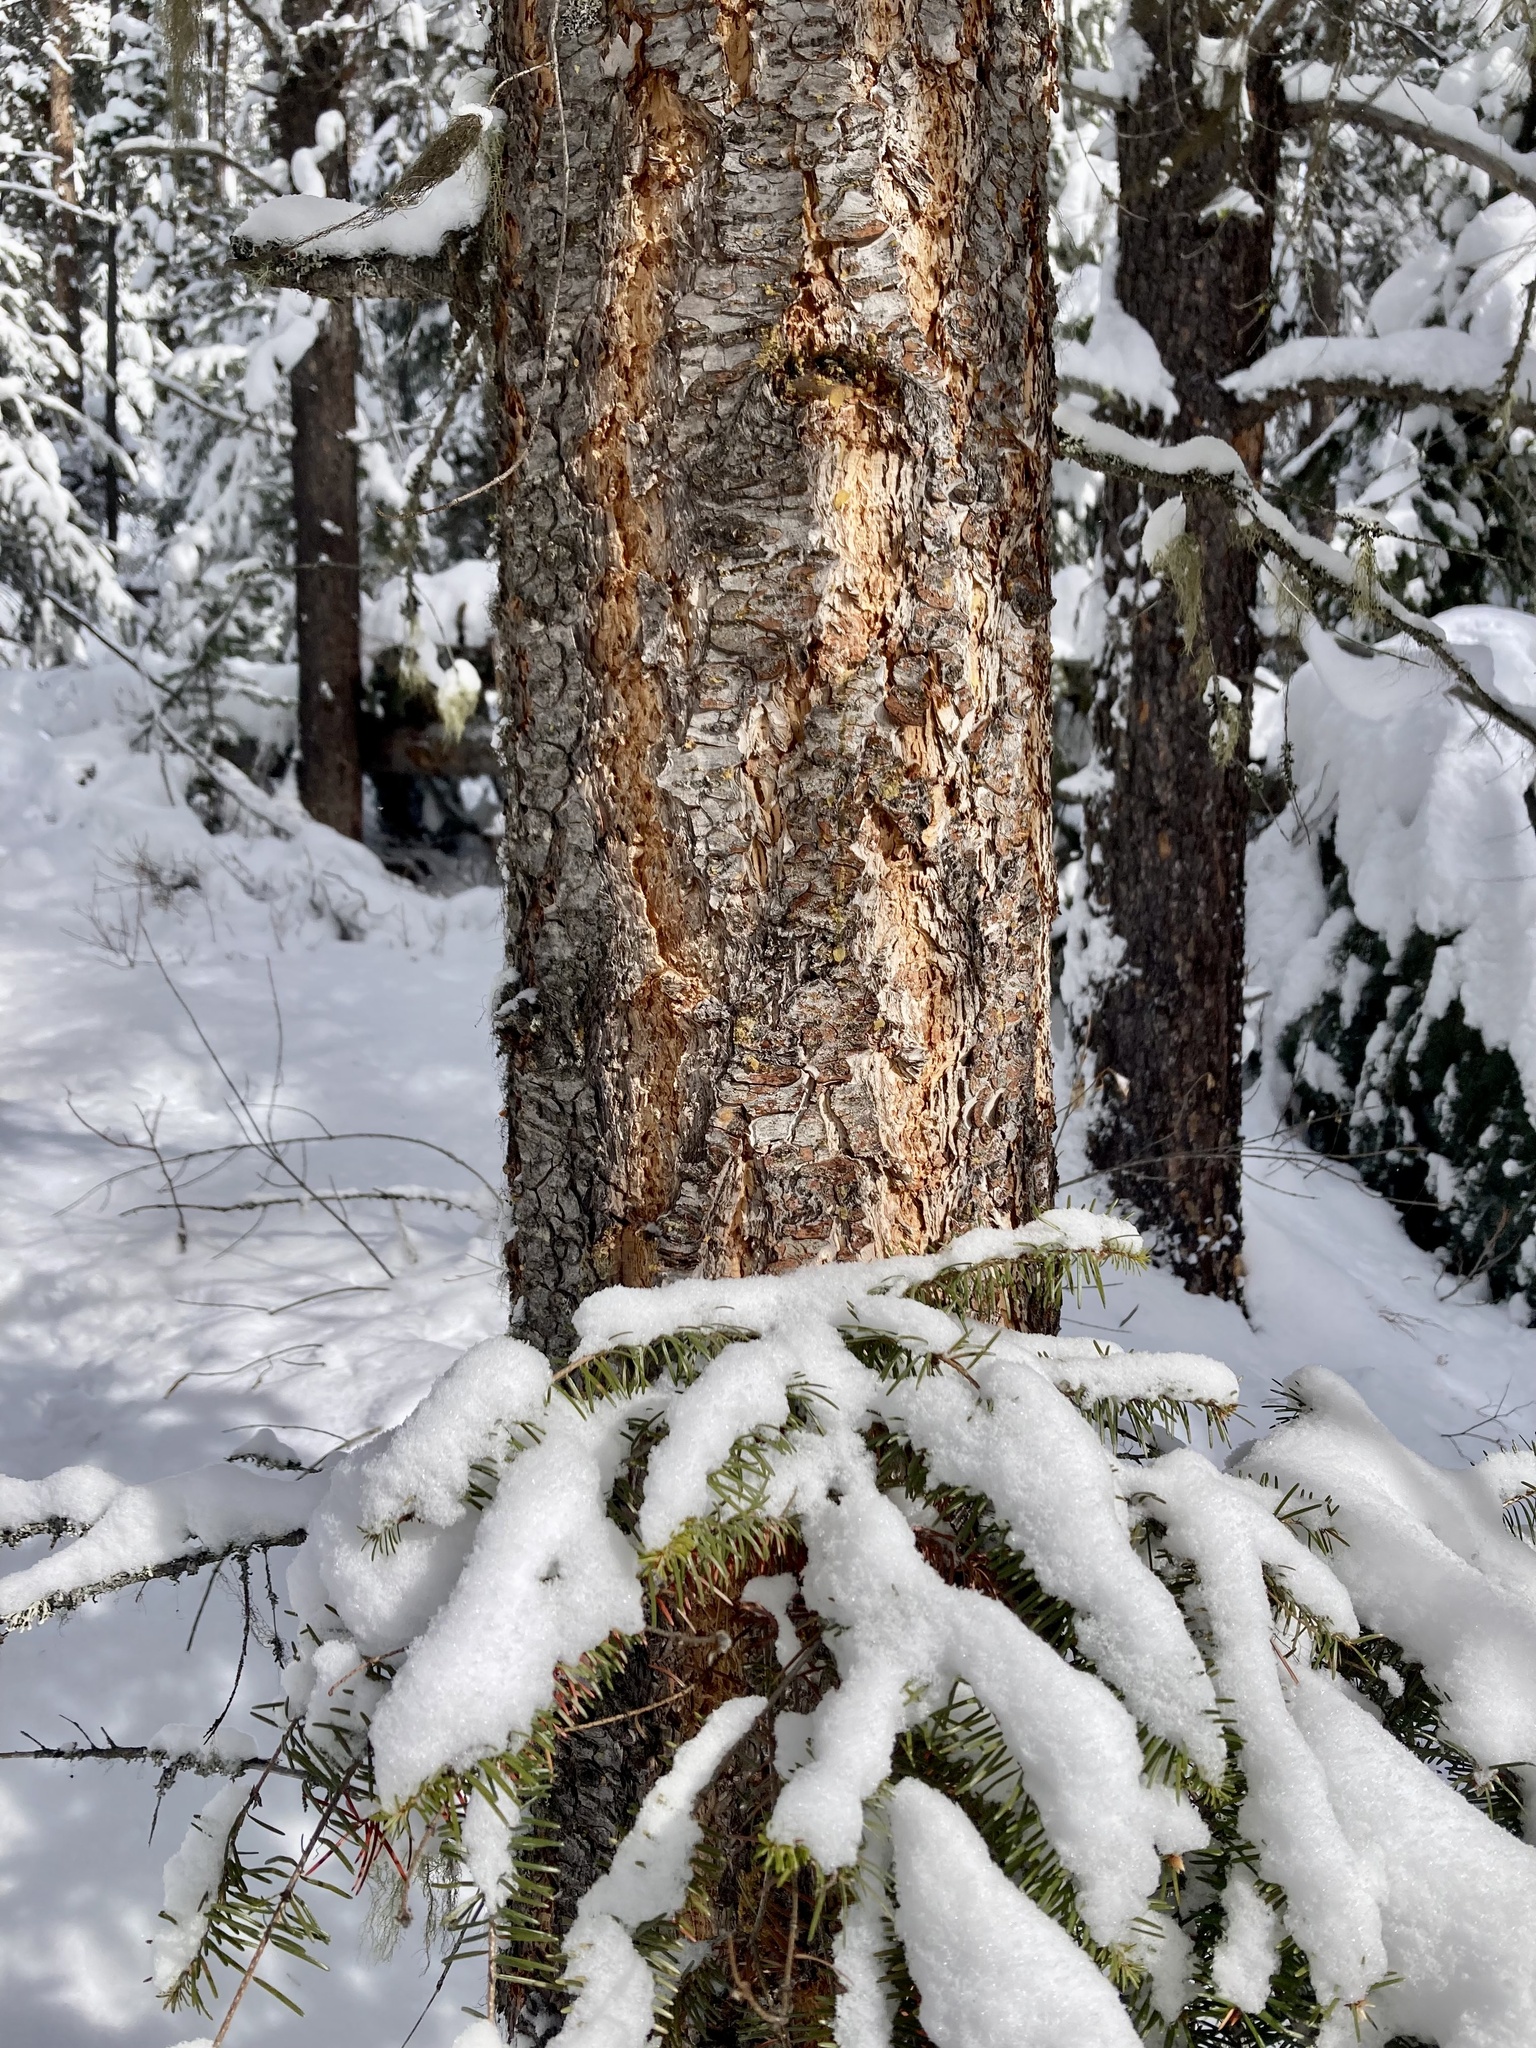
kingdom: Plantae
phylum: Tracheophyta
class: Pinopsida
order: Pinales
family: Pinaceae
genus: Pseudotsuga
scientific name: Pseudotsuga menziesii
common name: Douglas fir
